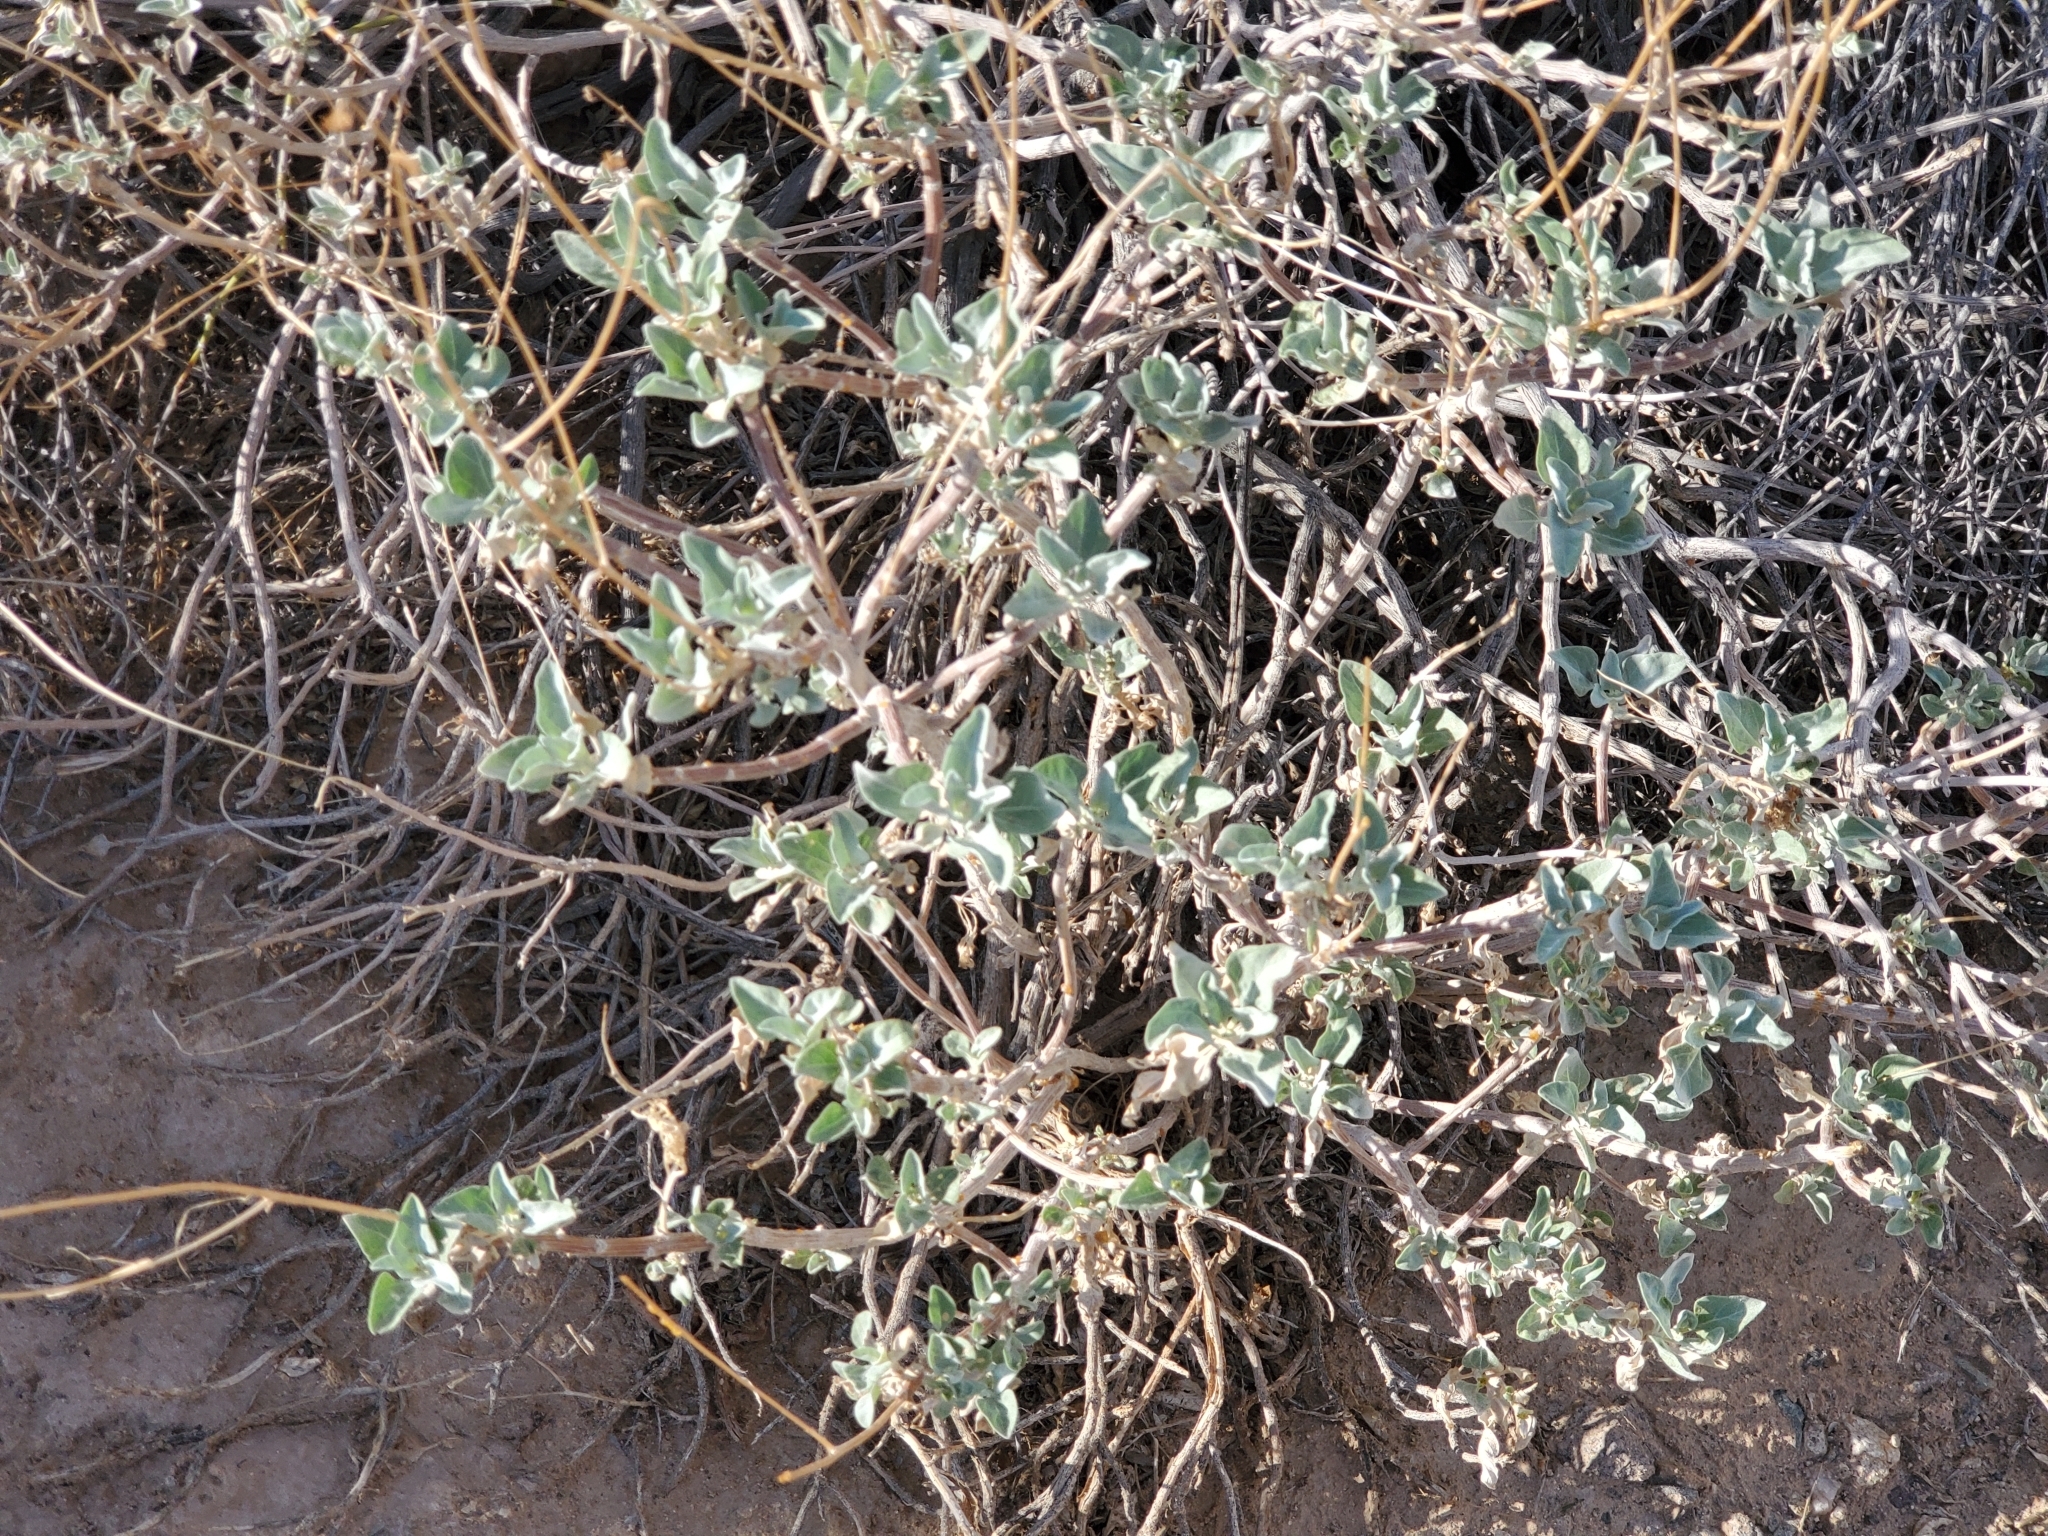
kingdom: Plantae
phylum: Tracheophyta
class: Magnoliopsida
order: Asterales
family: Asteraceae
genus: Encelia
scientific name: Encelia farinosa
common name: Brittlebush
